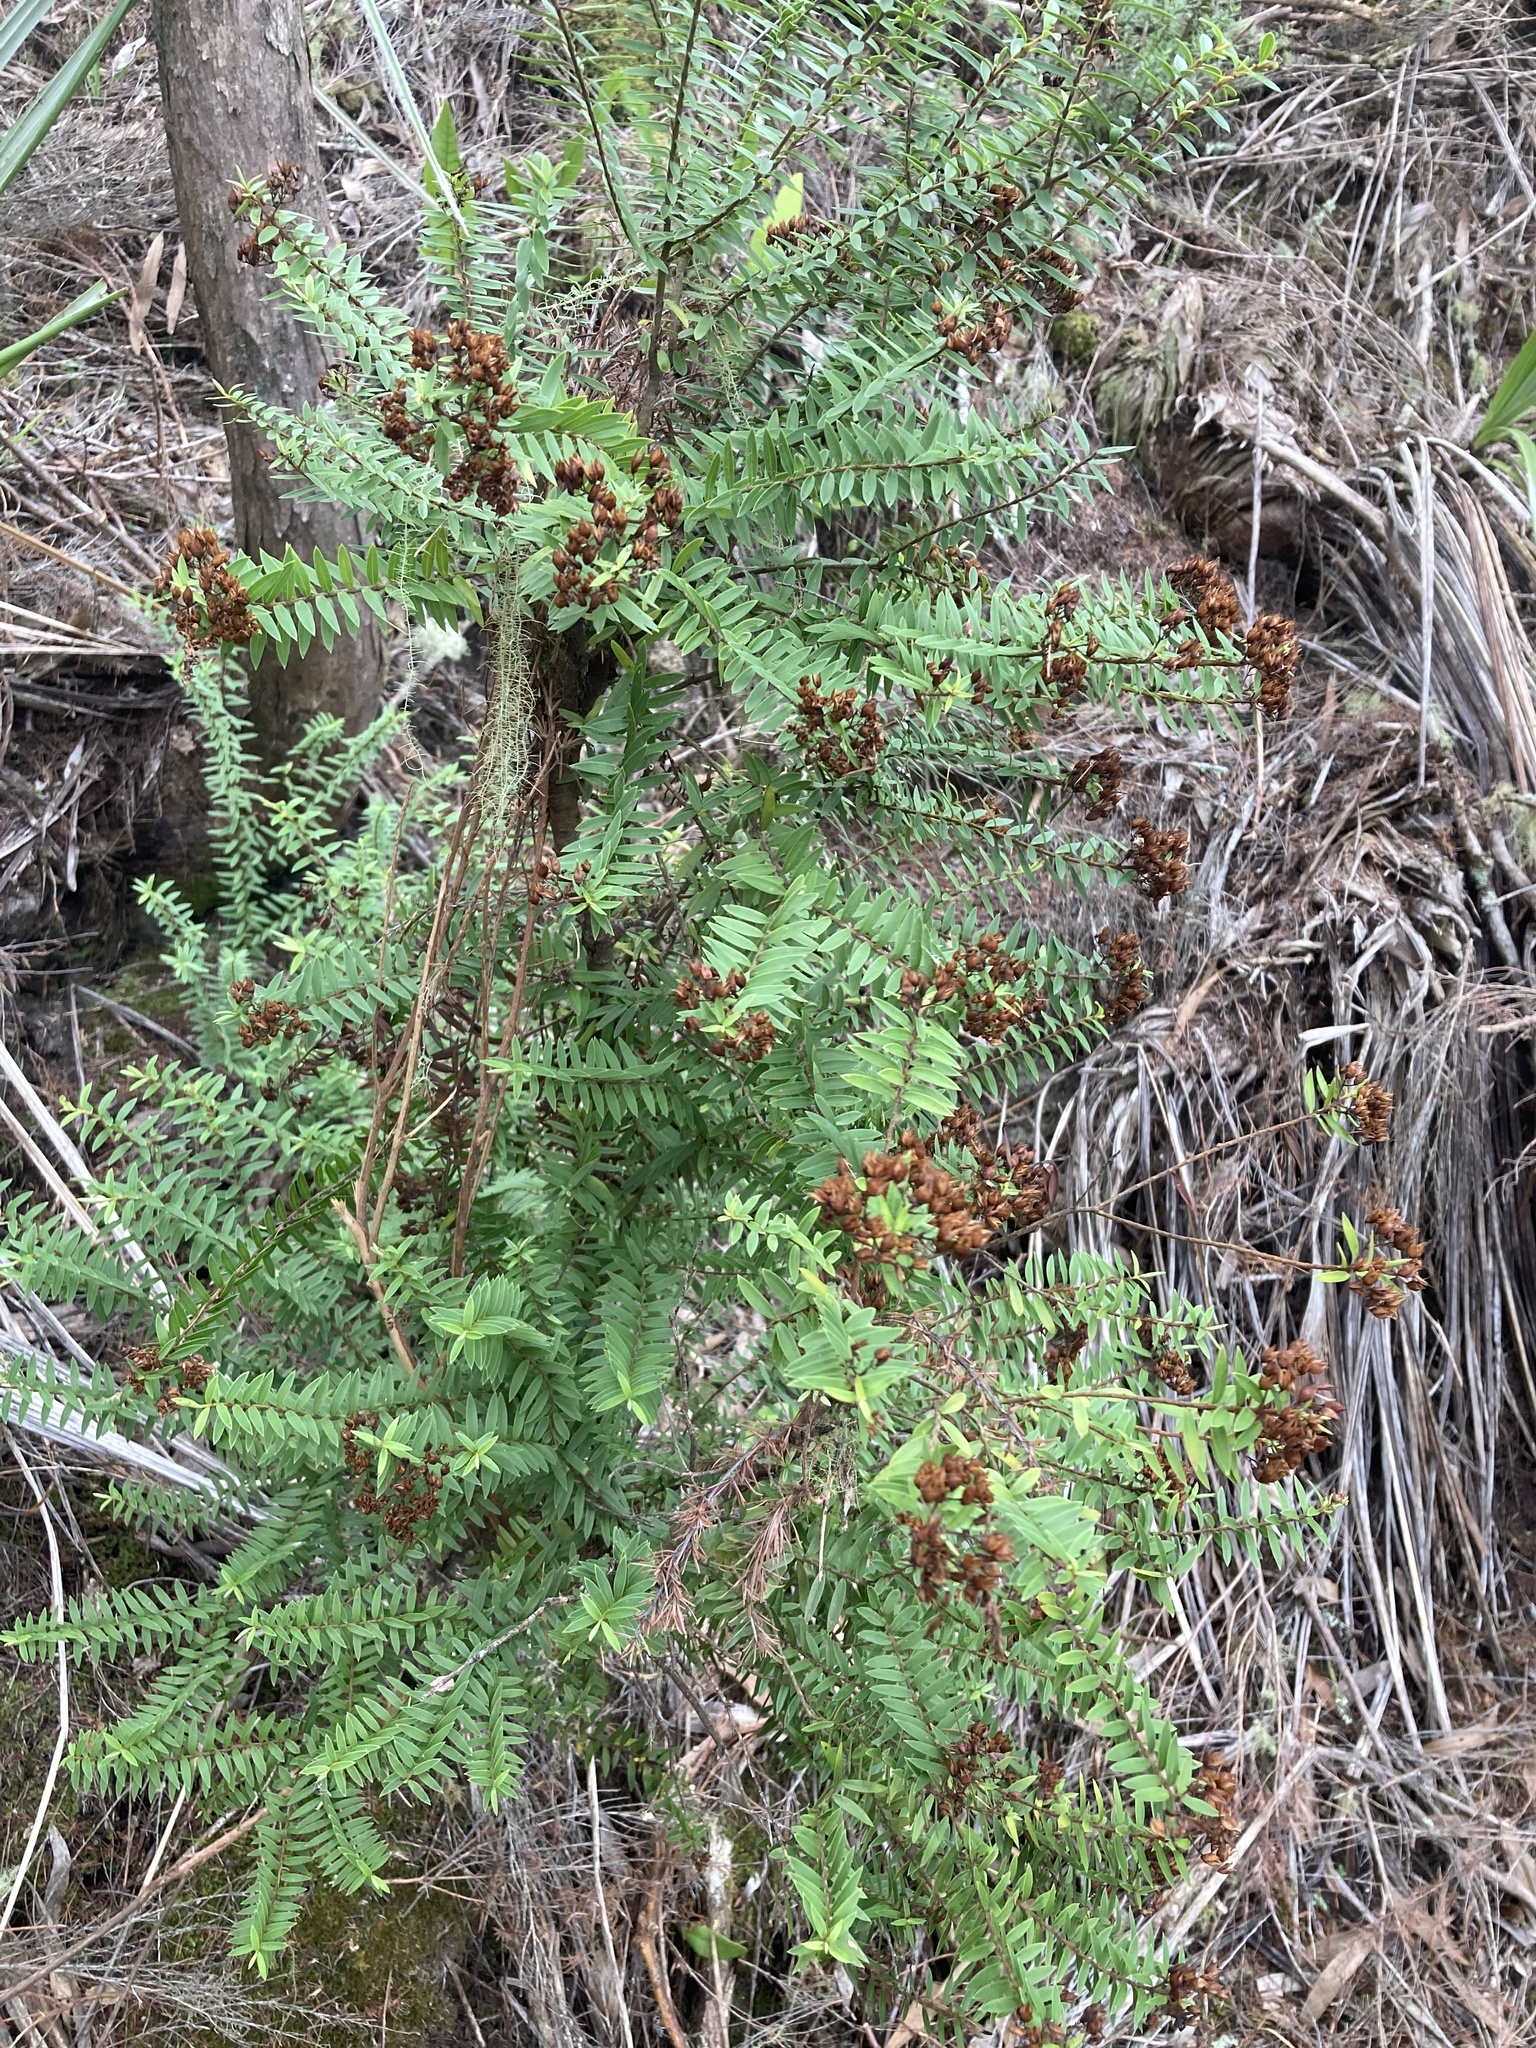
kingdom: Plantae
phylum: Tracheophyta
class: Magnoliopsida
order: Lamiales
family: Plantaginaceae
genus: Veronica
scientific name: Veronica diosmifolia
